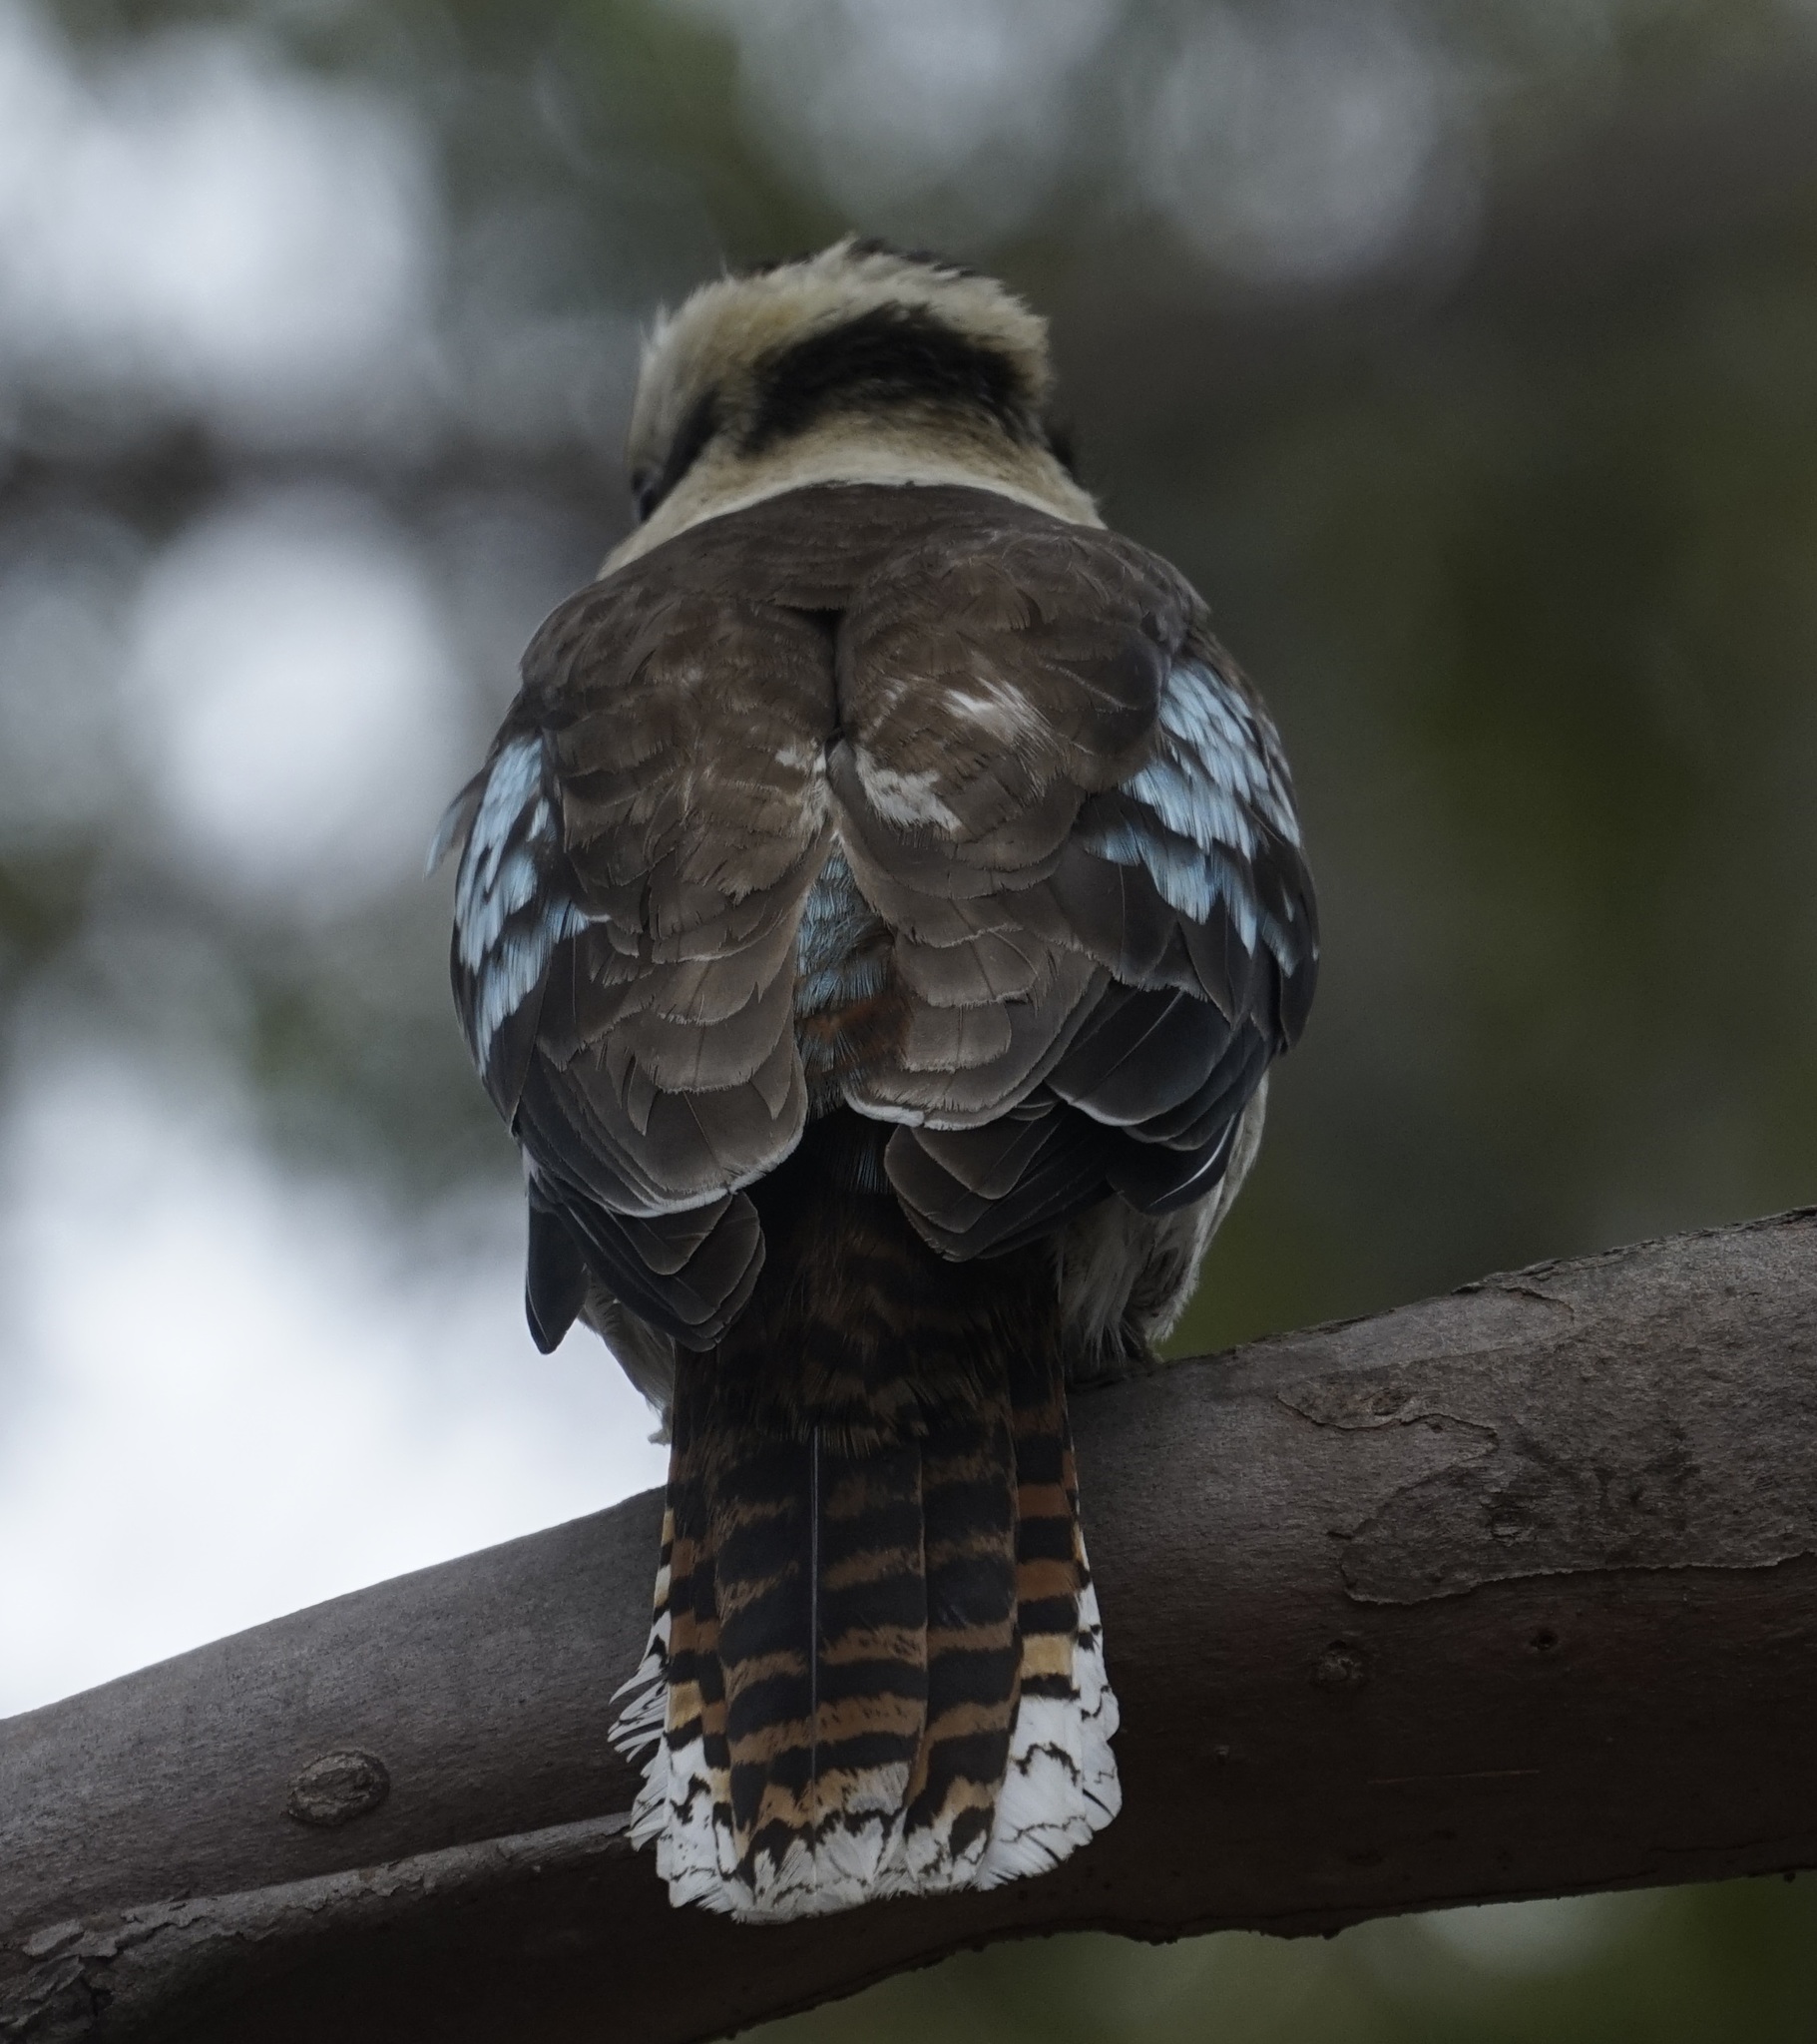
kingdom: Animalia
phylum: Chordata
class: Aves
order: Coraciiformes
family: Alcedinidae
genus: Dacelo
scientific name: Dacelo novaeguineae
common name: Laughing kookaburra
